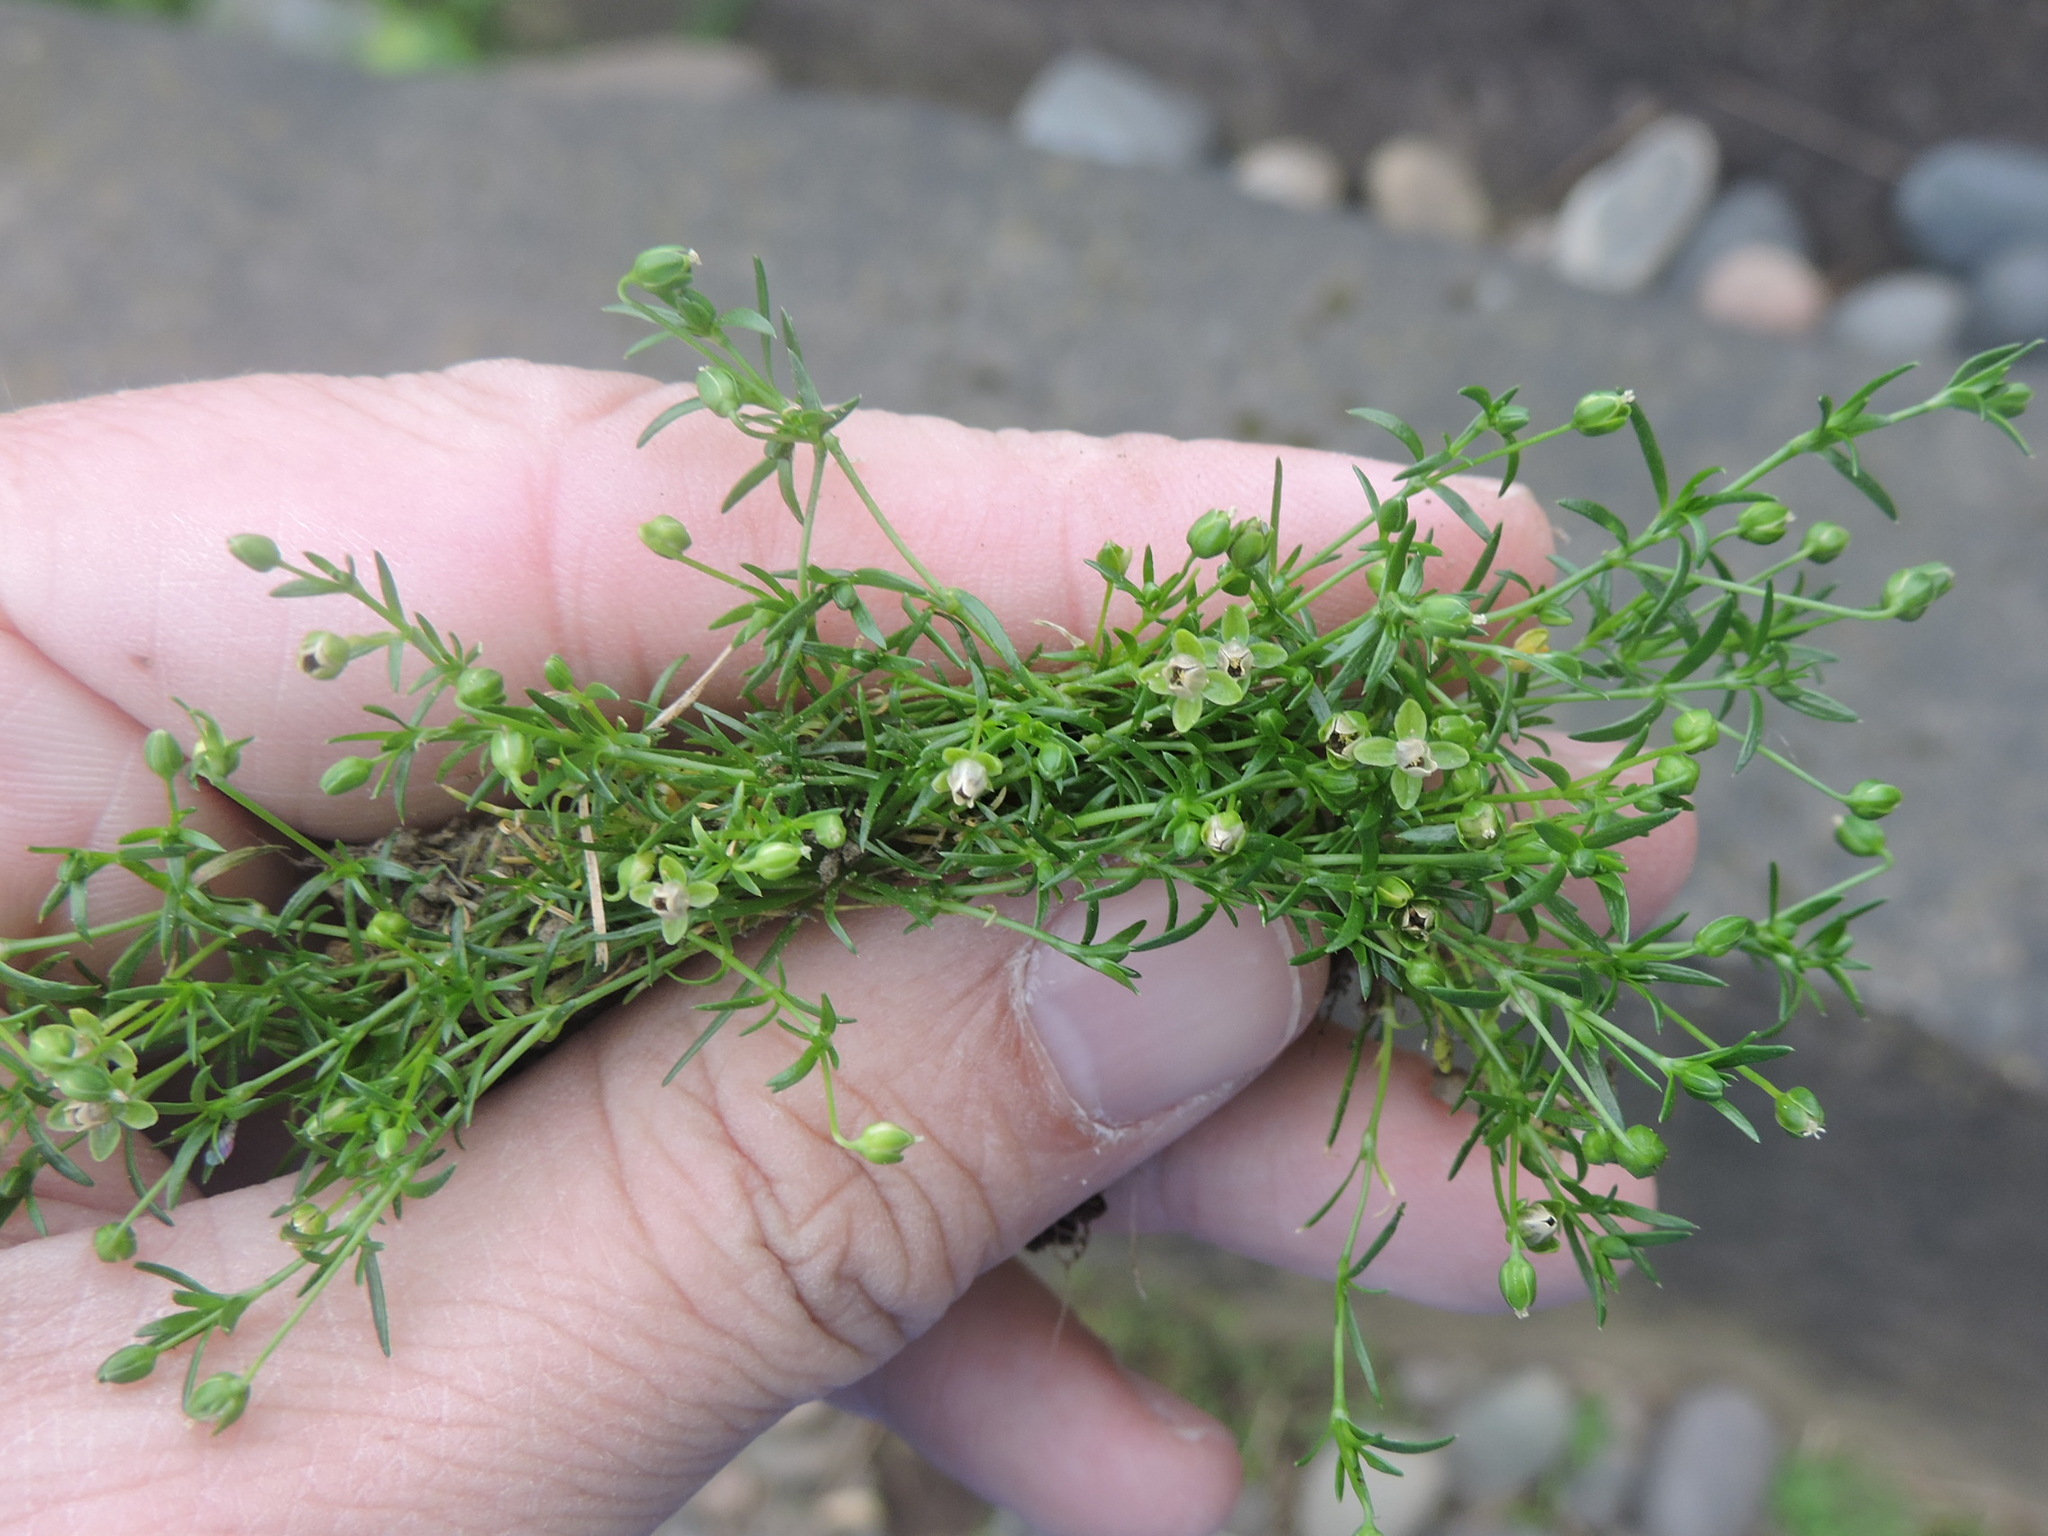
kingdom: Plantae
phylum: Tracheophyta
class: Magnoliopsida
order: Caryophyllales
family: Caryophyllaceae
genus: Sagina
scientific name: Sagina procumbens
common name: Procumbent pearlwort
